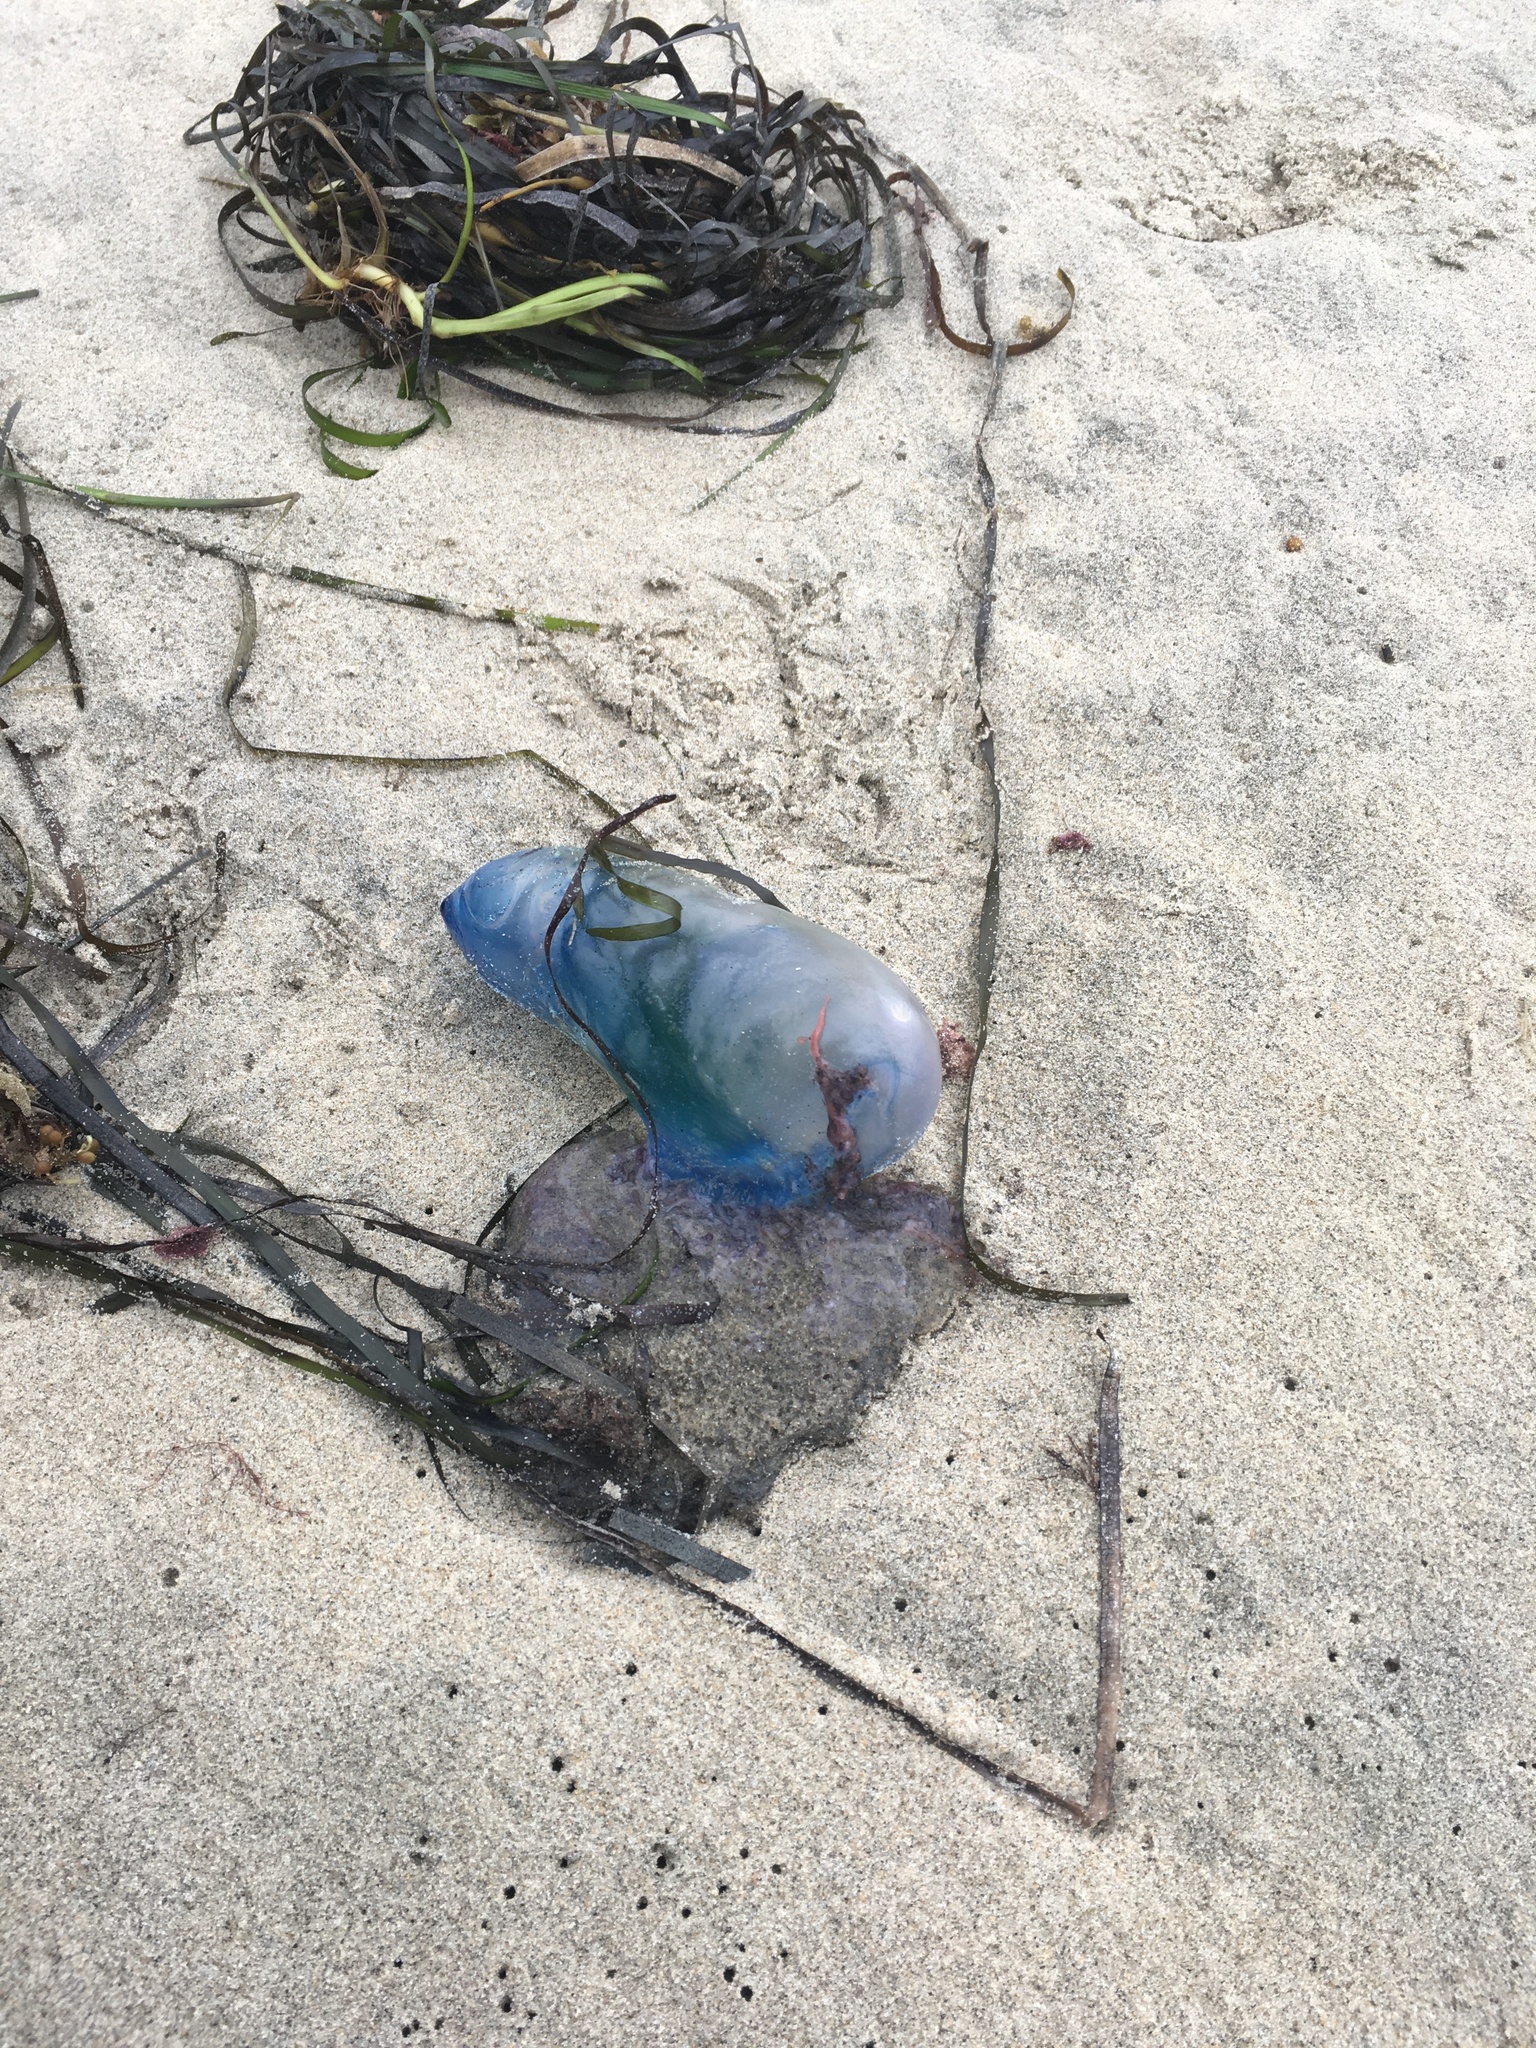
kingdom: Animalia
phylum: Cnidaria
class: Hydrozoa
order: Siphonophorae
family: Physaliidae
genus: Physalia
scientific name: Physalia physalis
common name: Portuguese man-of-war
